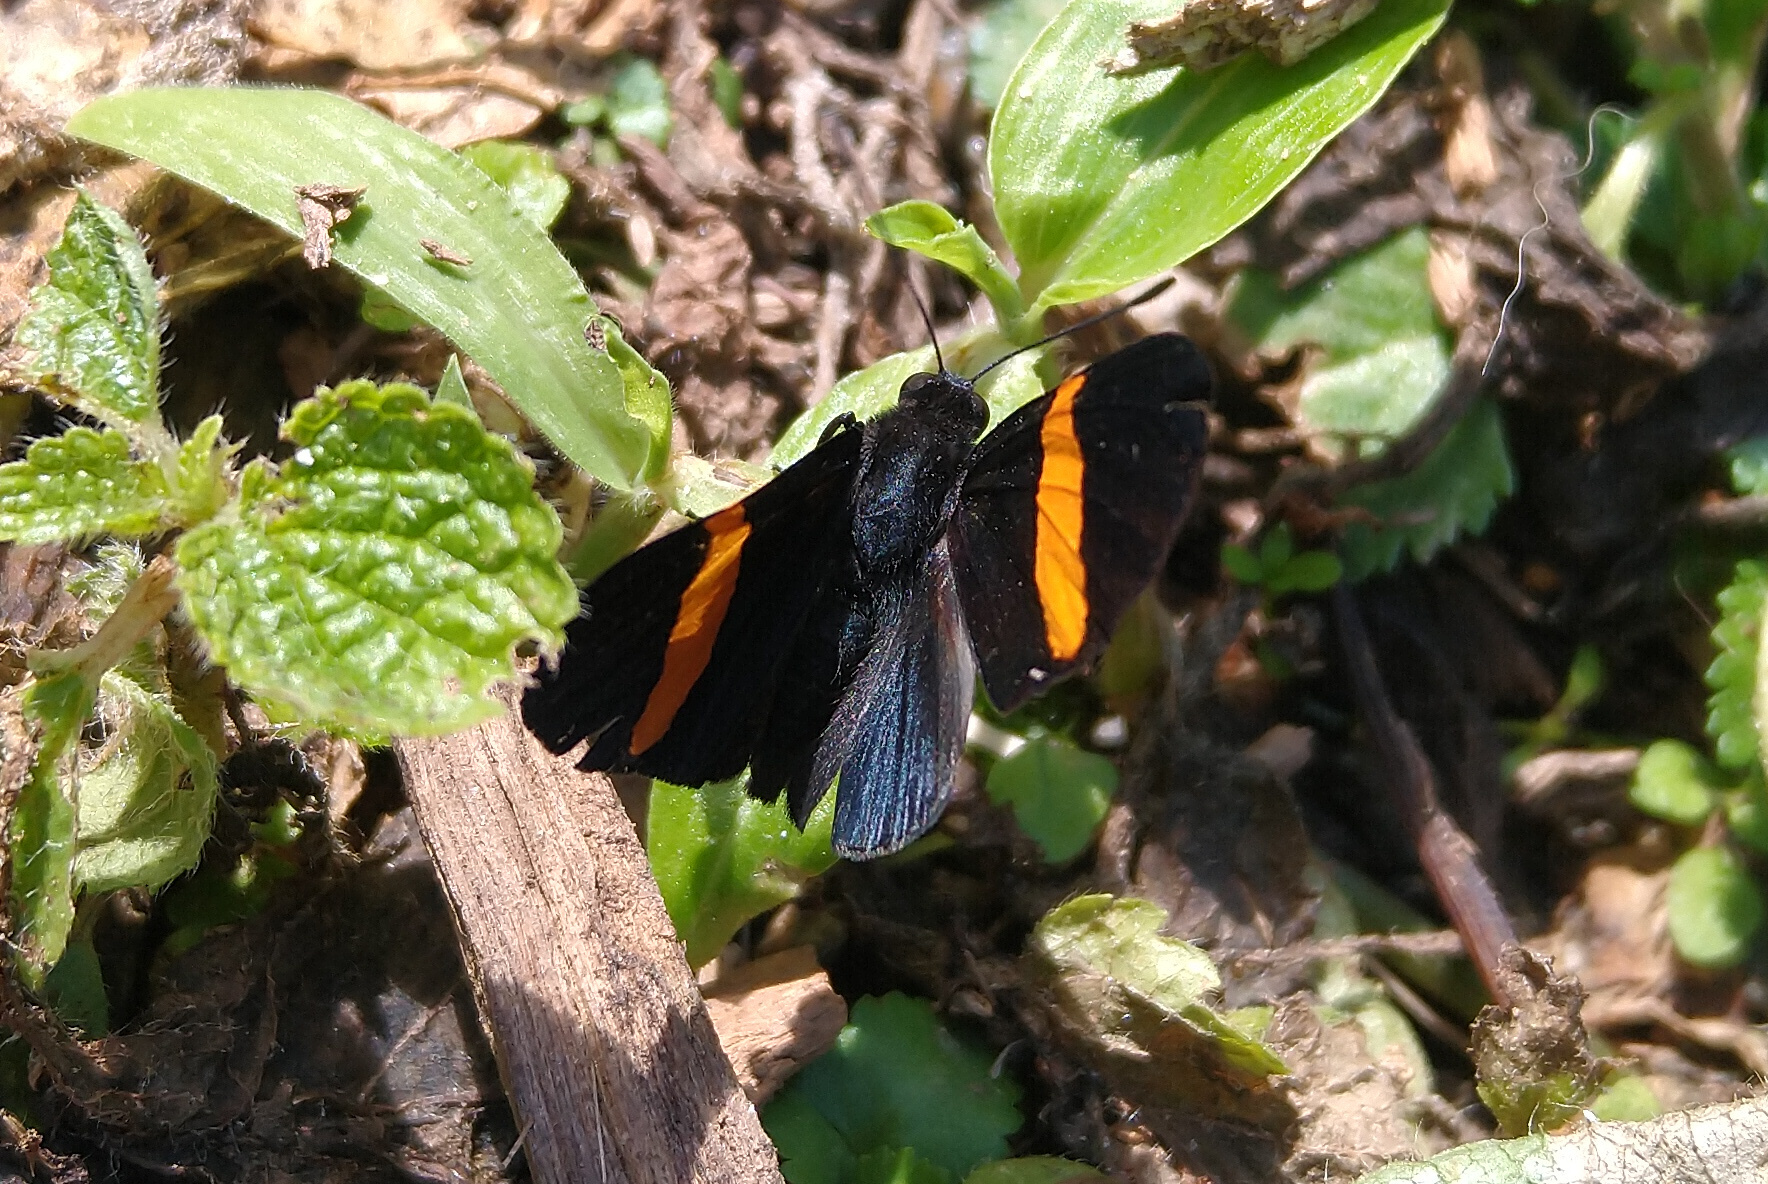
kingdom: Animalia
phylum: Arthropoda
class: Insecta
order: Lepidoptera
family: Lycaenidae
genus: Melanis
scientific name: Melanis agyrtus
